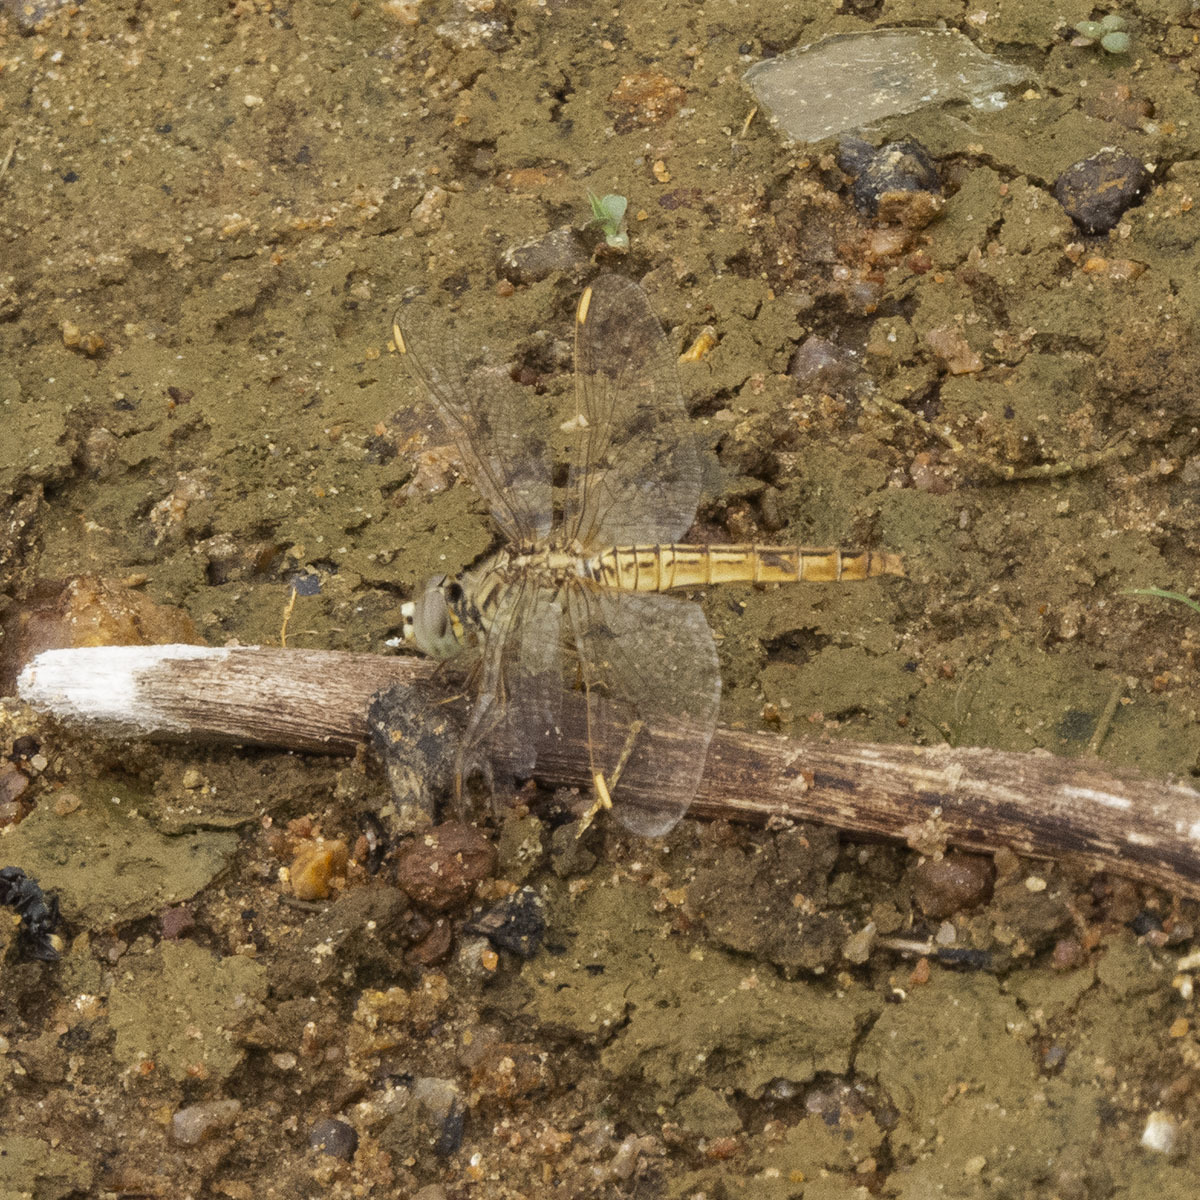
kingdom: Animalia
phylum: Arthropoda
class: Insecta
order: Odonata
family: Libellulidae
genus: Brachythemis
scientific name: Brachythemis contaminata
